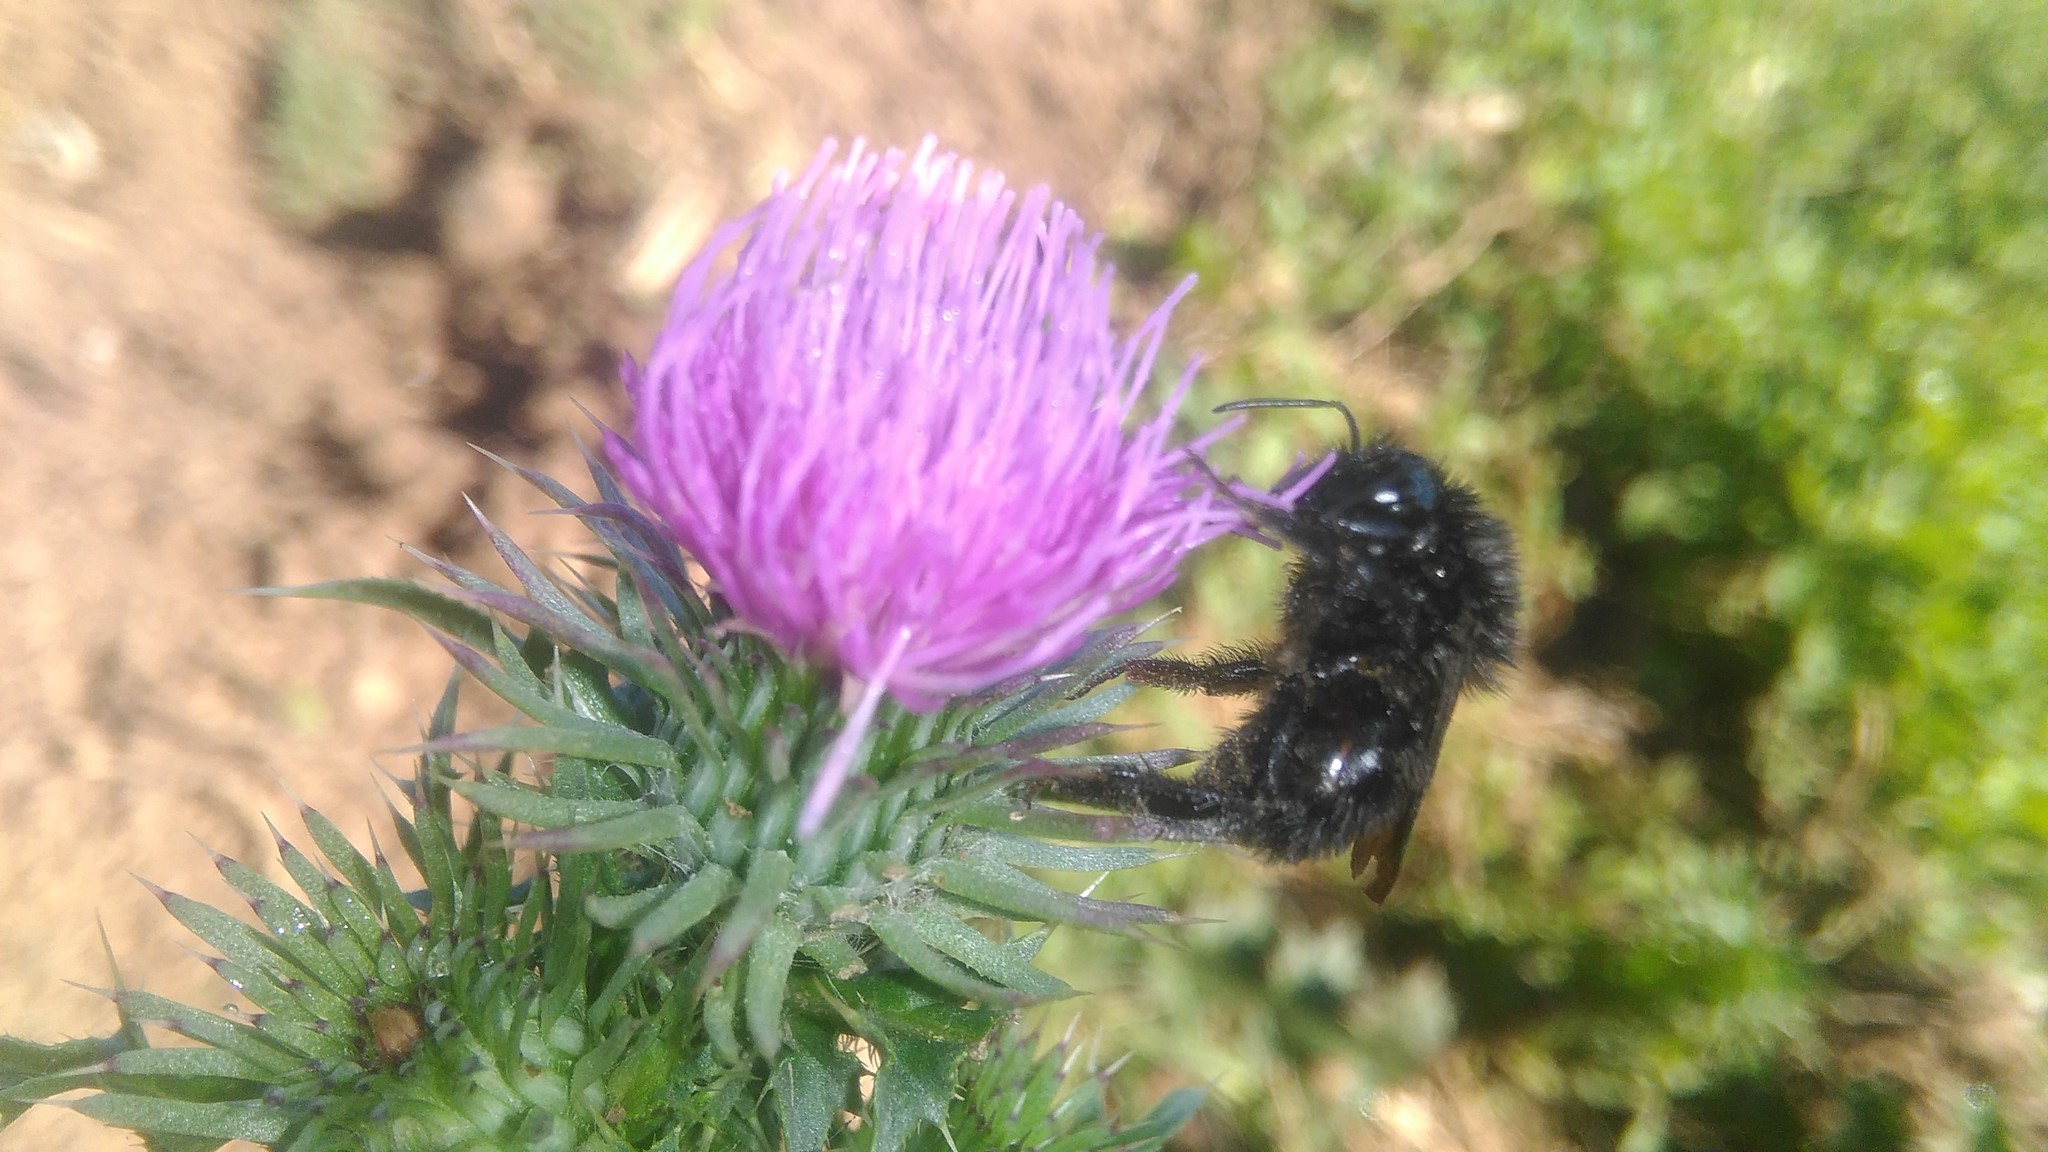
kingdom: Animalia
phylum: Arthropoda
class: Insecta
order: Hymenoptera
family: Apidae
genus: Bombus
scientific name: Bombus pauloensis
